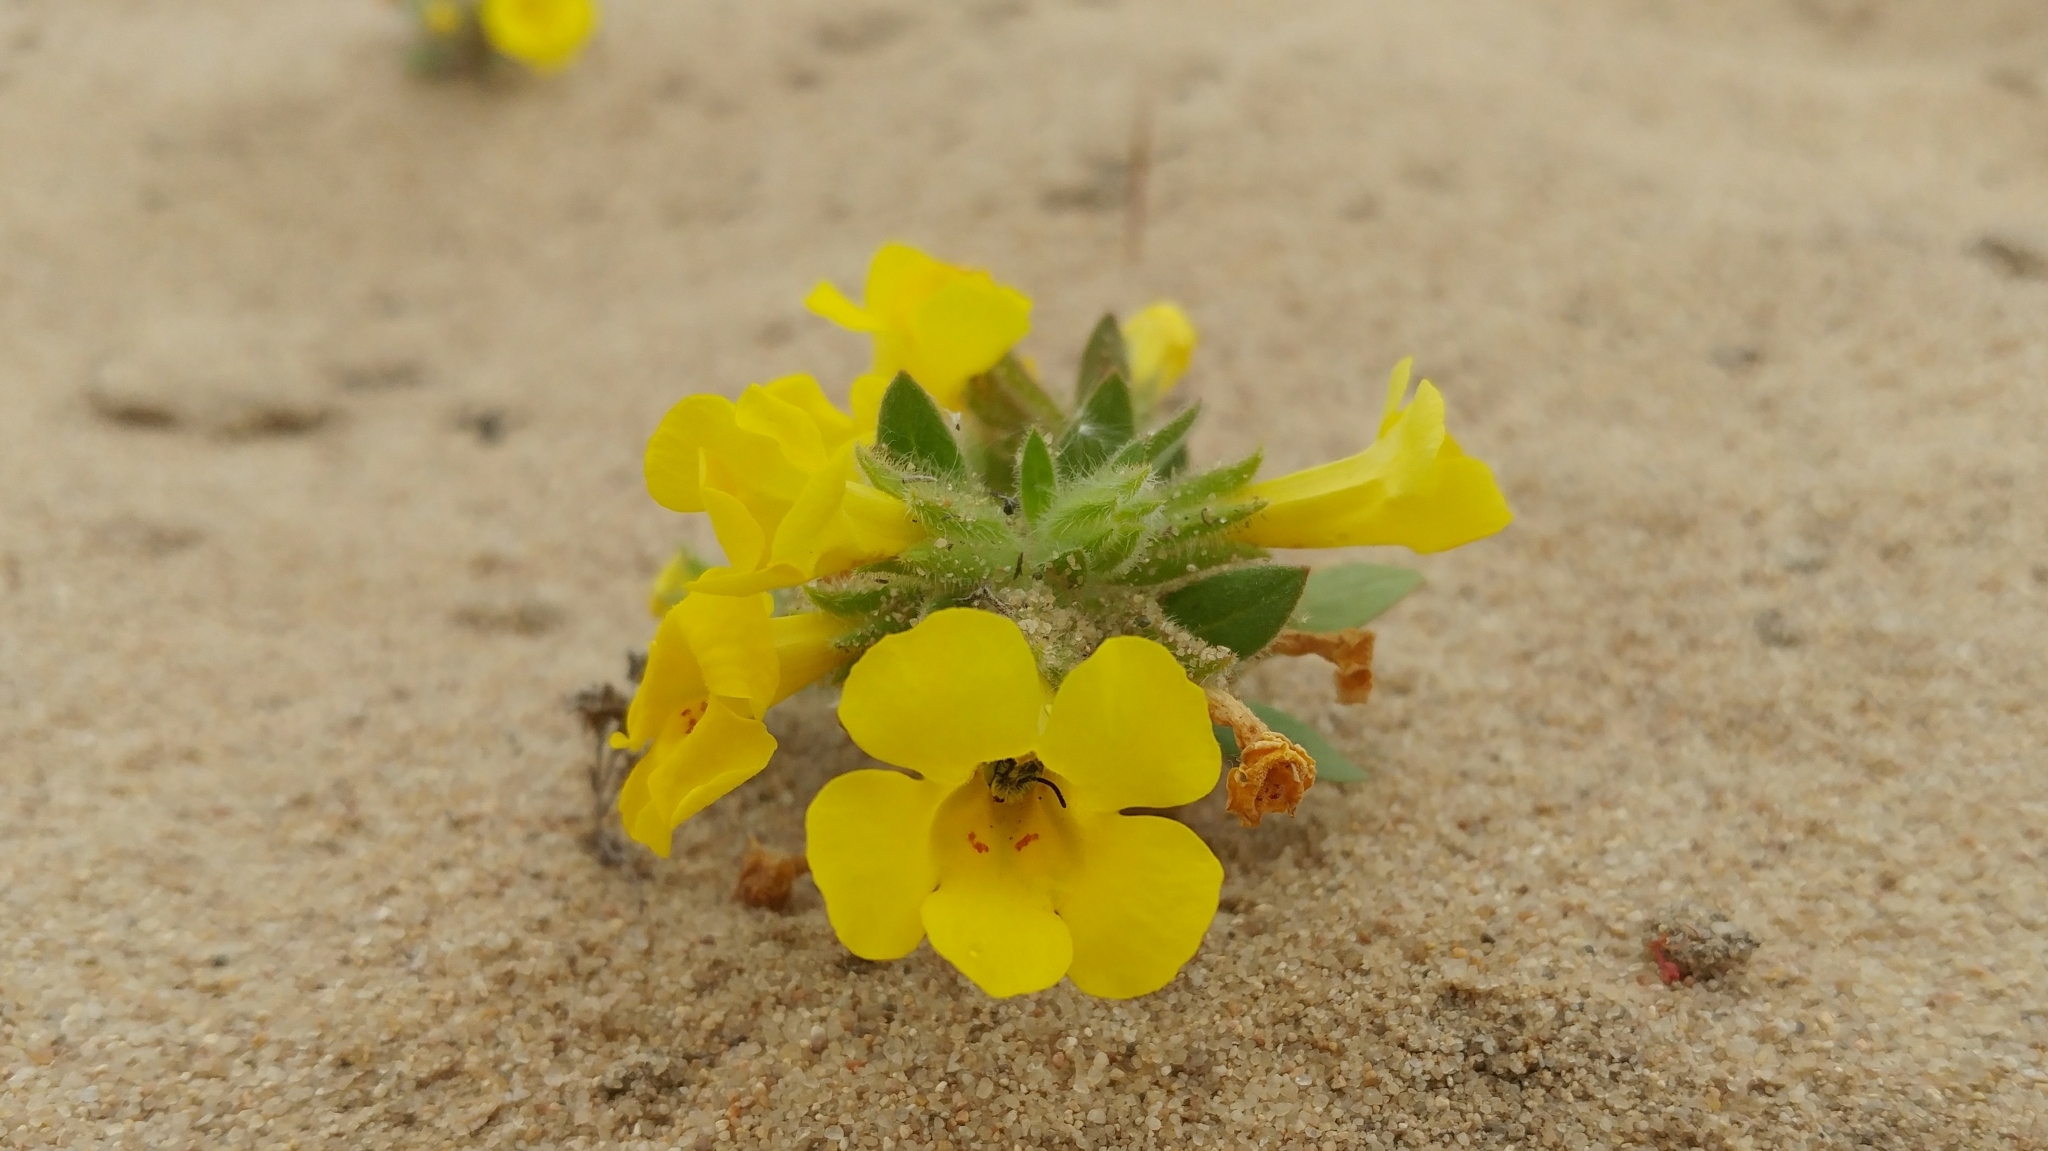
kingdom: Plantae
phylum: Tracheophyta
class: Magnoliopsida
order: Lamiales
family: Phrymaceae
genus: Diplacus
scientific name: Diplacus vandenbergensis
